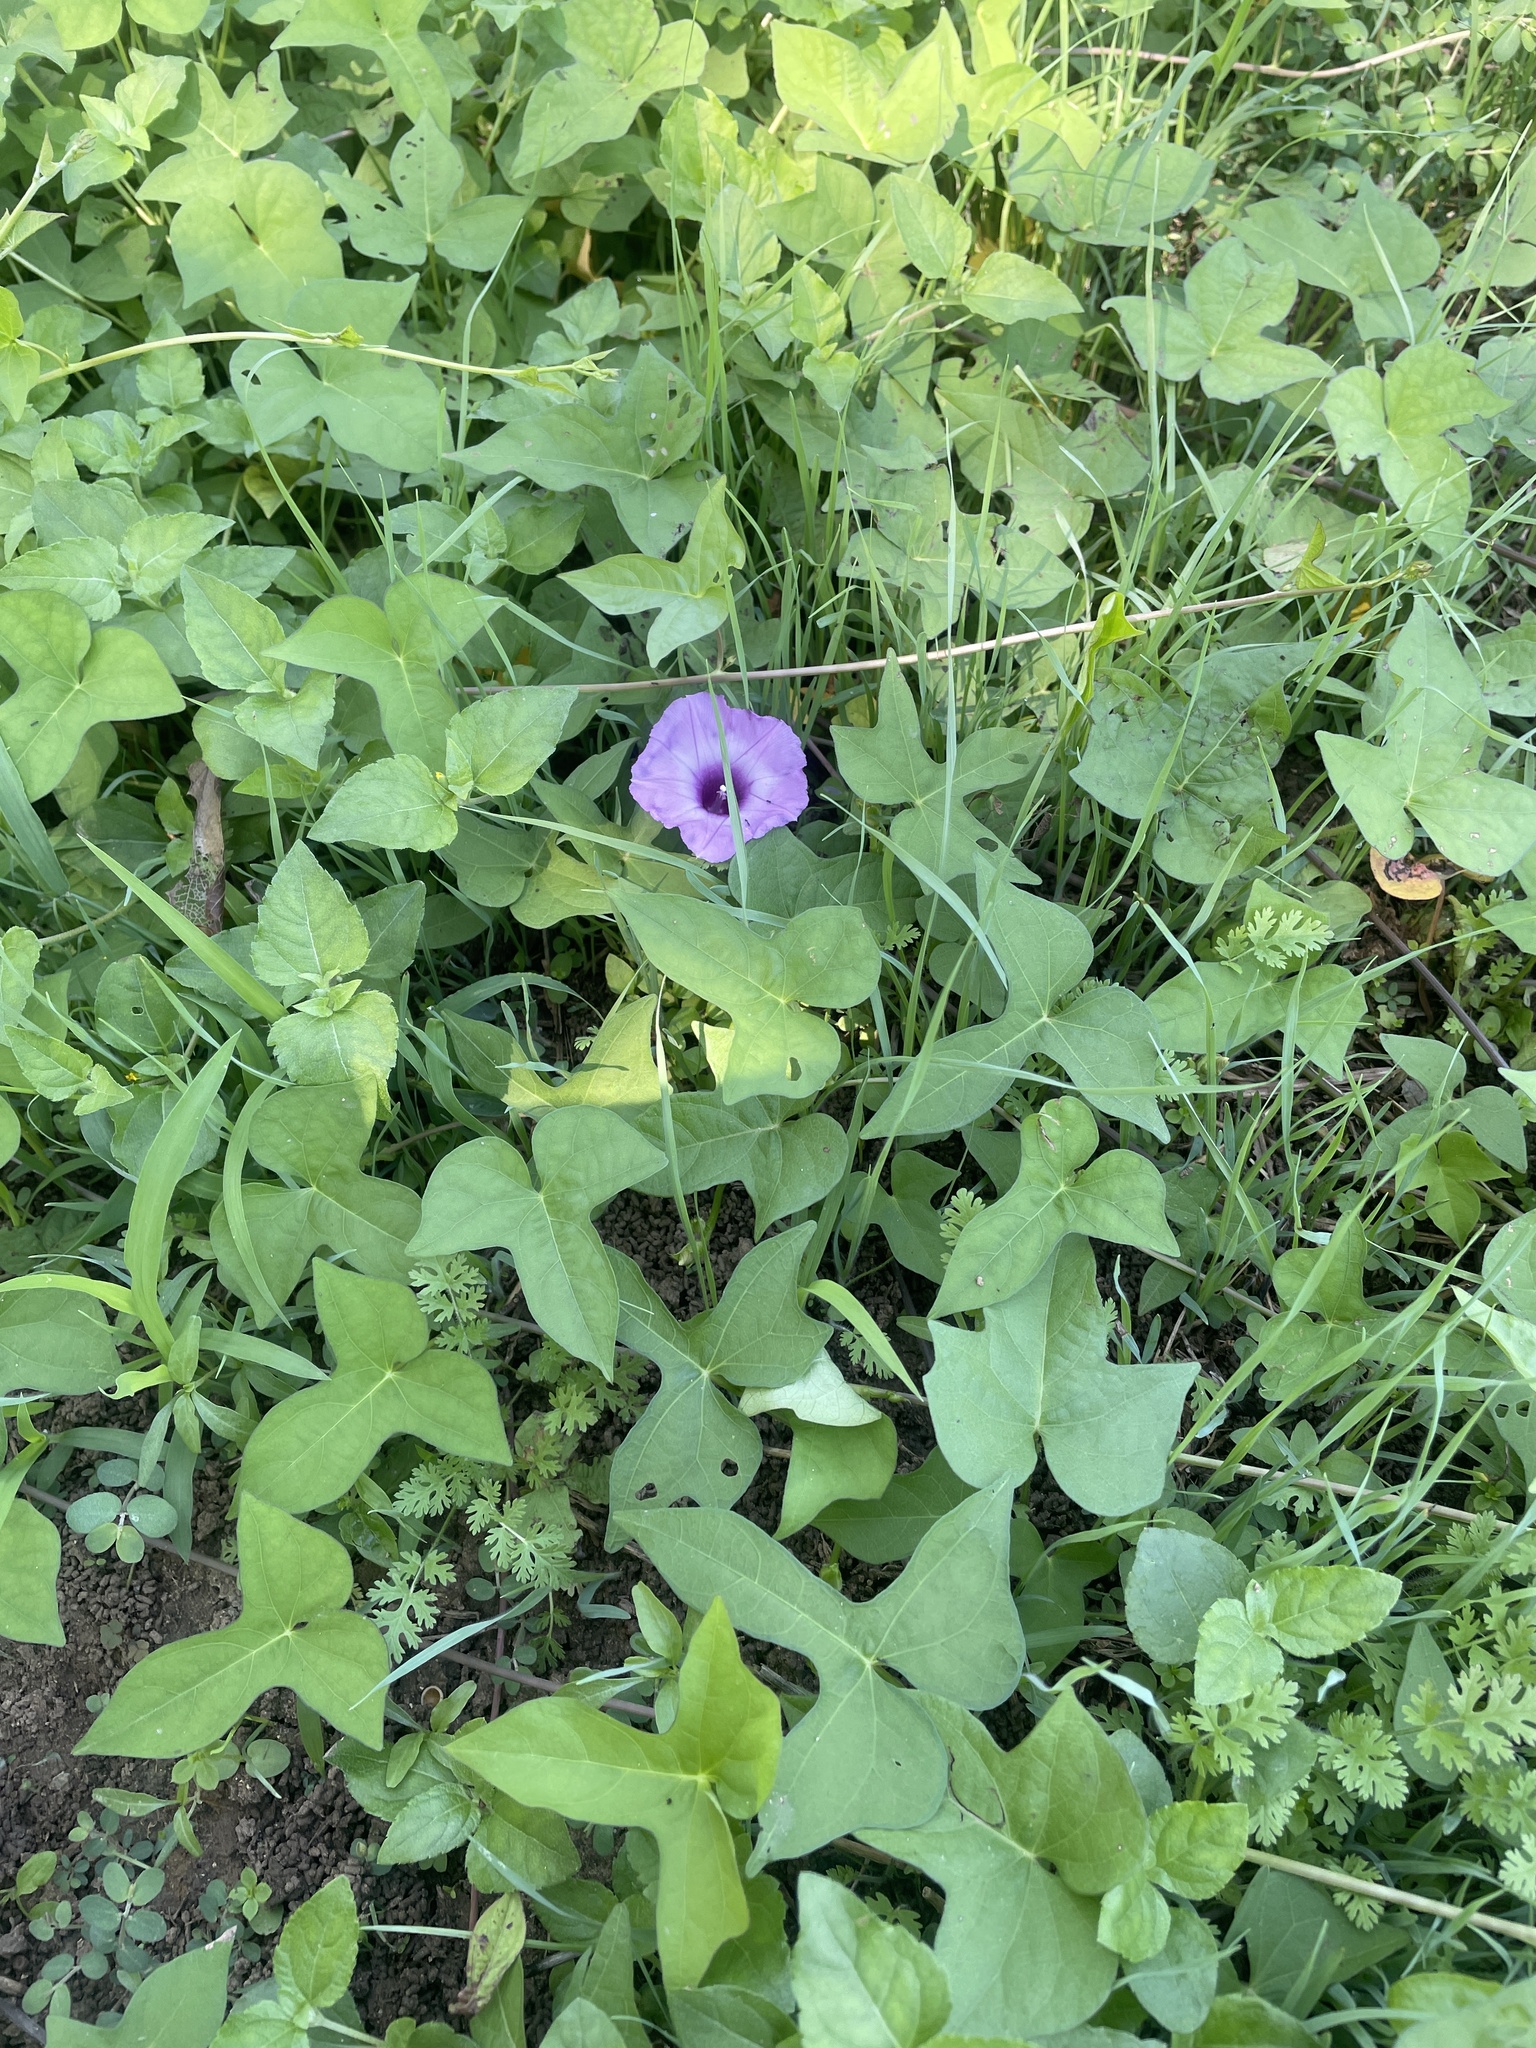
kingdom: Plantae
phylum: Tracheophyta
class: Magnoliopsida
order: Solanales
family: Convolvulaceae
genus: Ipomoea
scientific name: Ipomoea cordatotriloba
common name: Cotton morning glory
